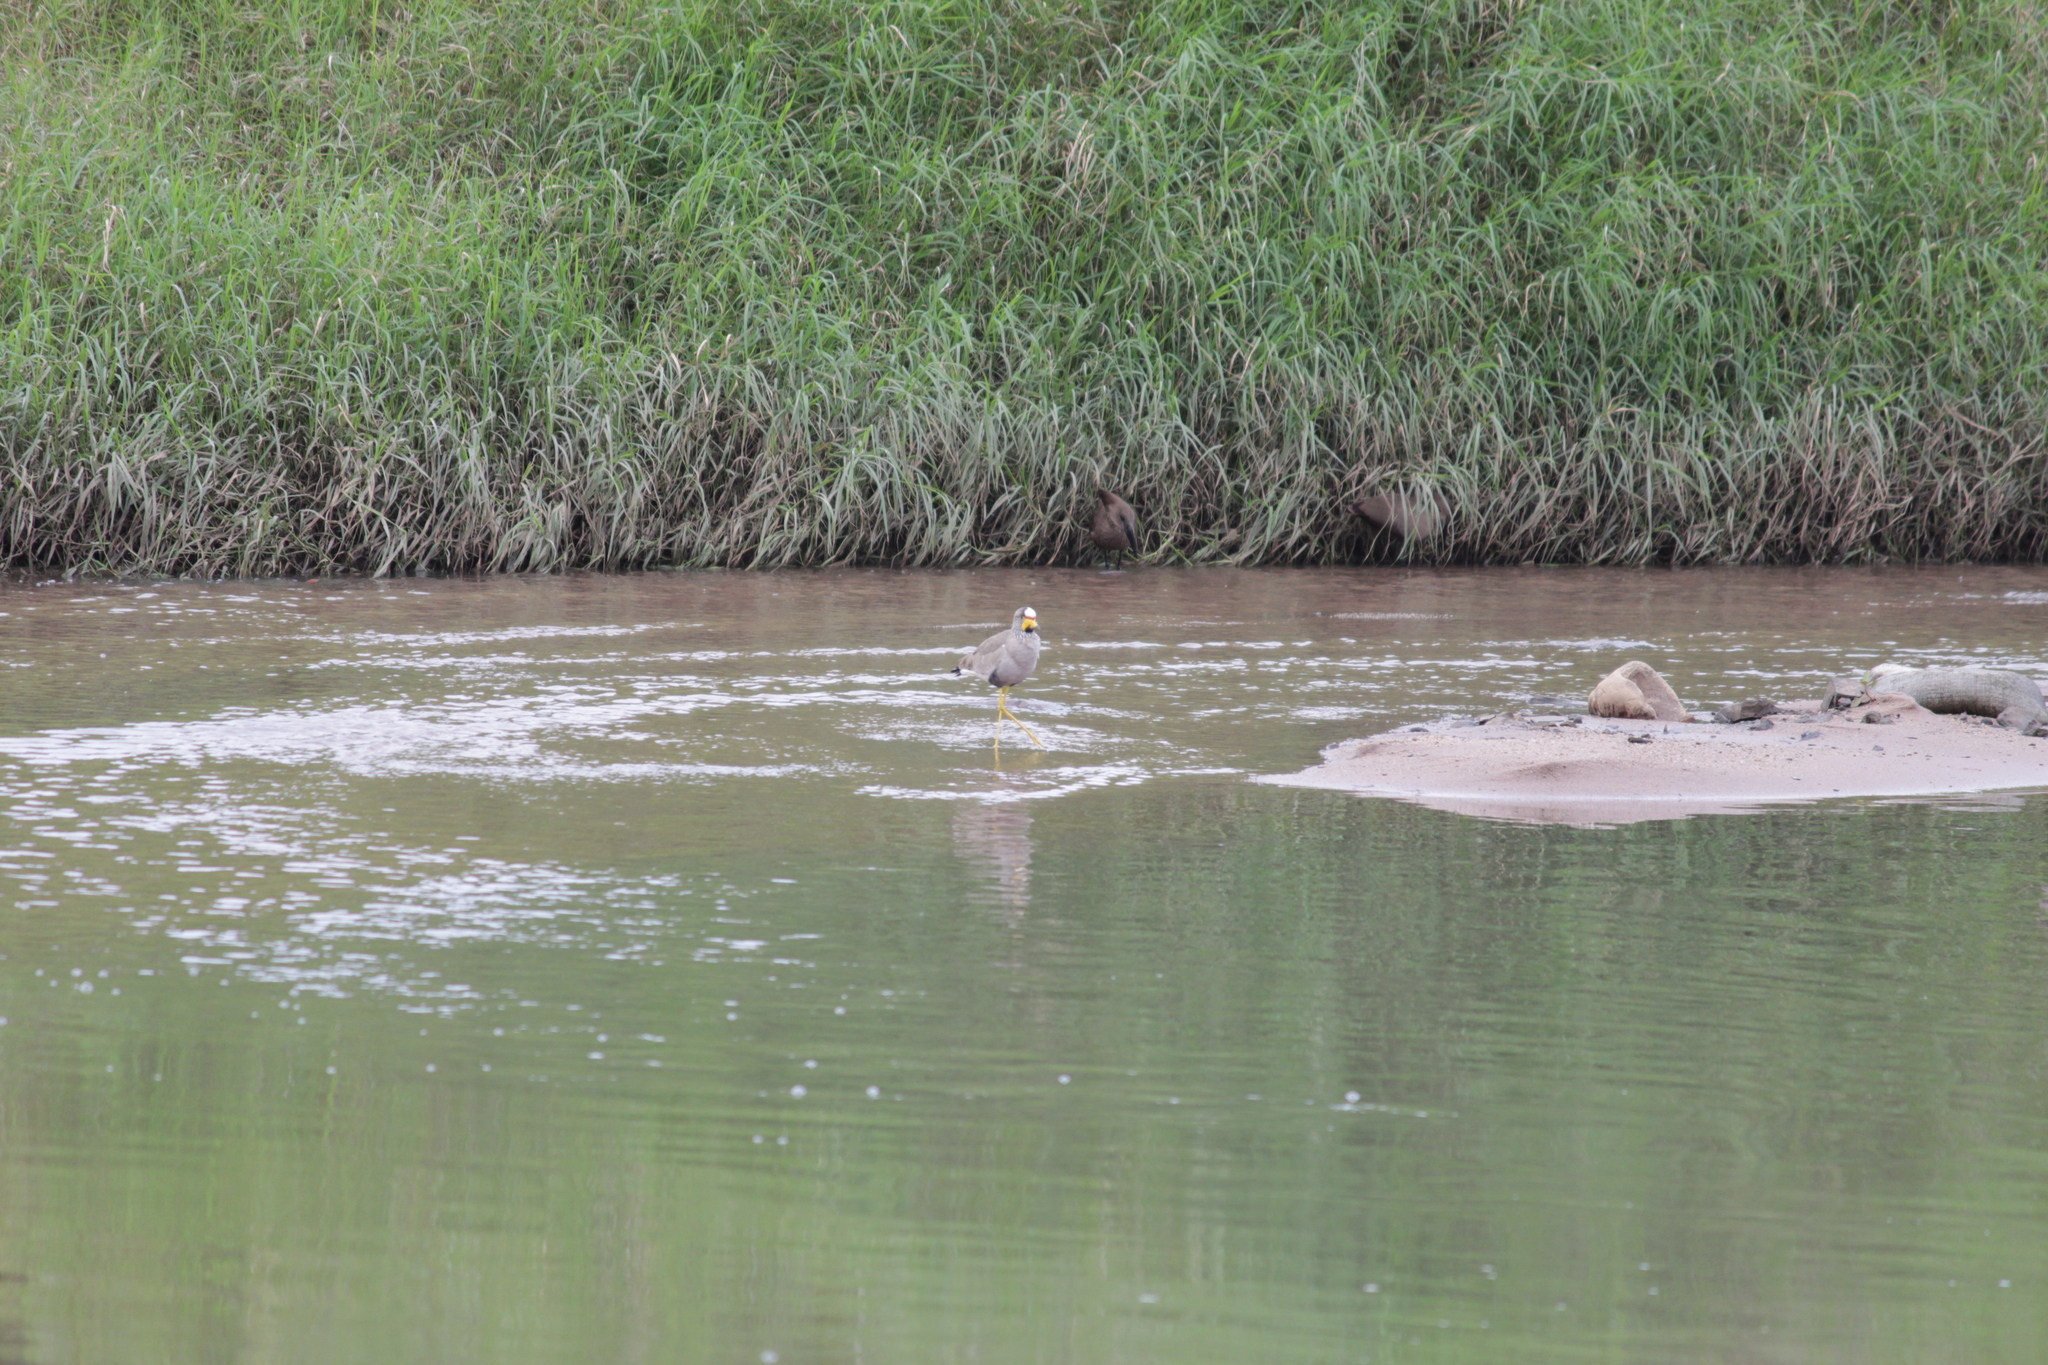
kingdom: Animalia
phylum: Chordata
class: Aves
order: Charadriiformes
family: Charadriidae
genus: Vanellus
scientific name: Vanellus senegallus
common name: African wattled lapwing
